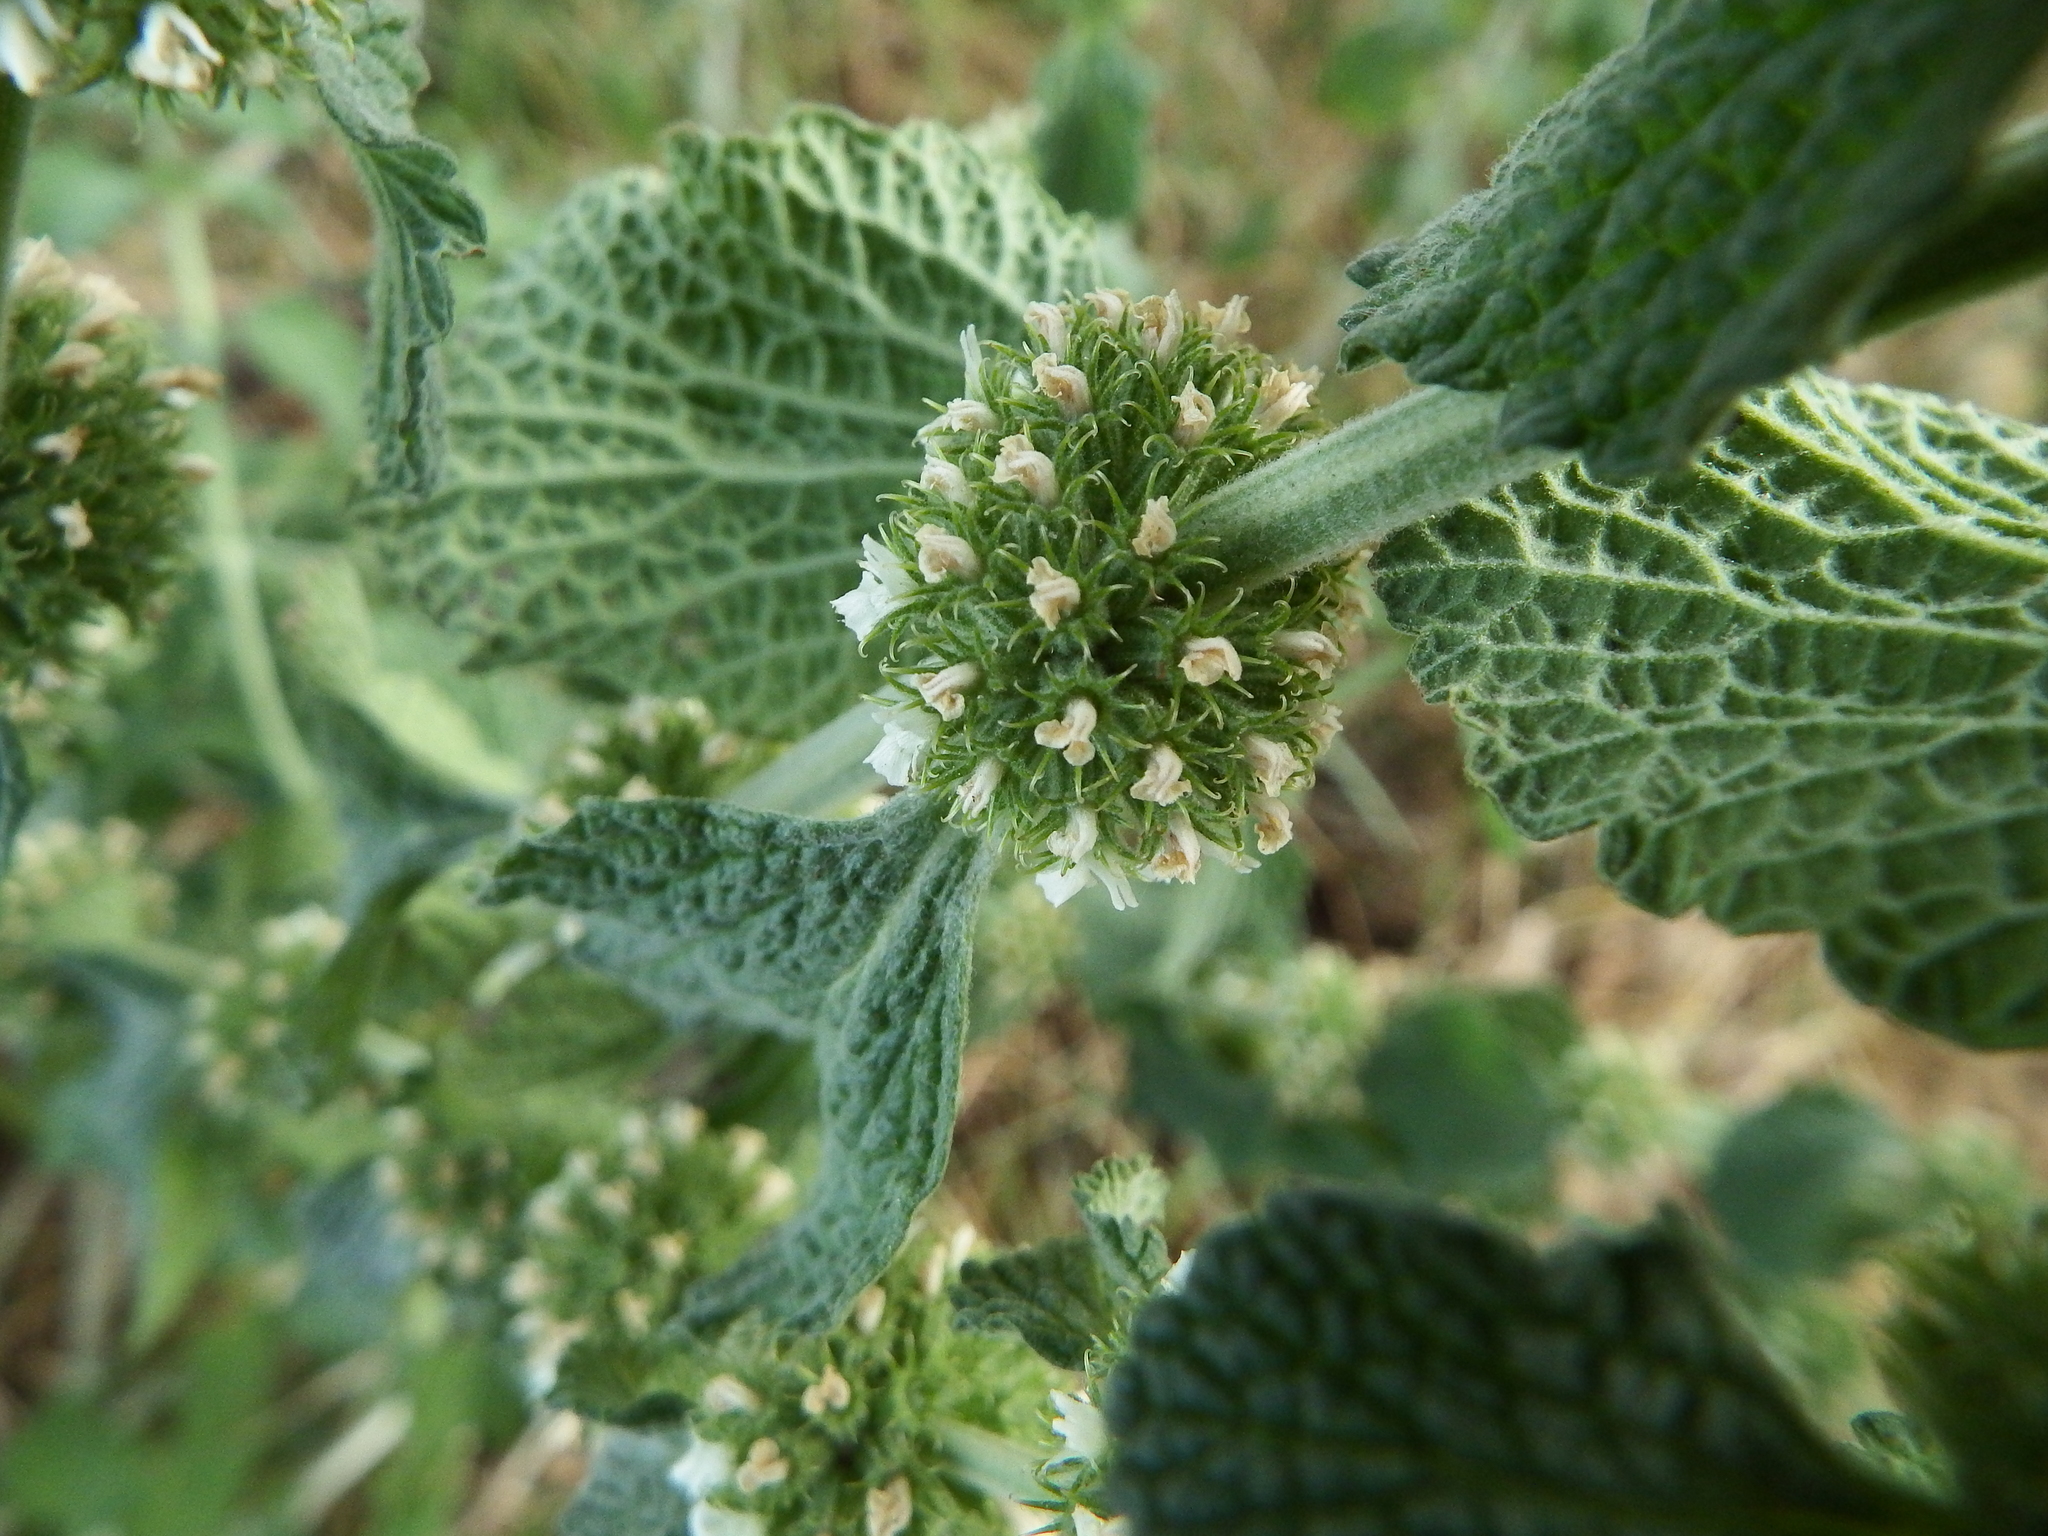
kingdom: Plantae
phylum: Tracheophyta
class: Magnoliopsida
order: Lamiales
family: Lamiaceae
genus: Marrubium
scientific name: Marrubium vulgare
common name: Horehound
